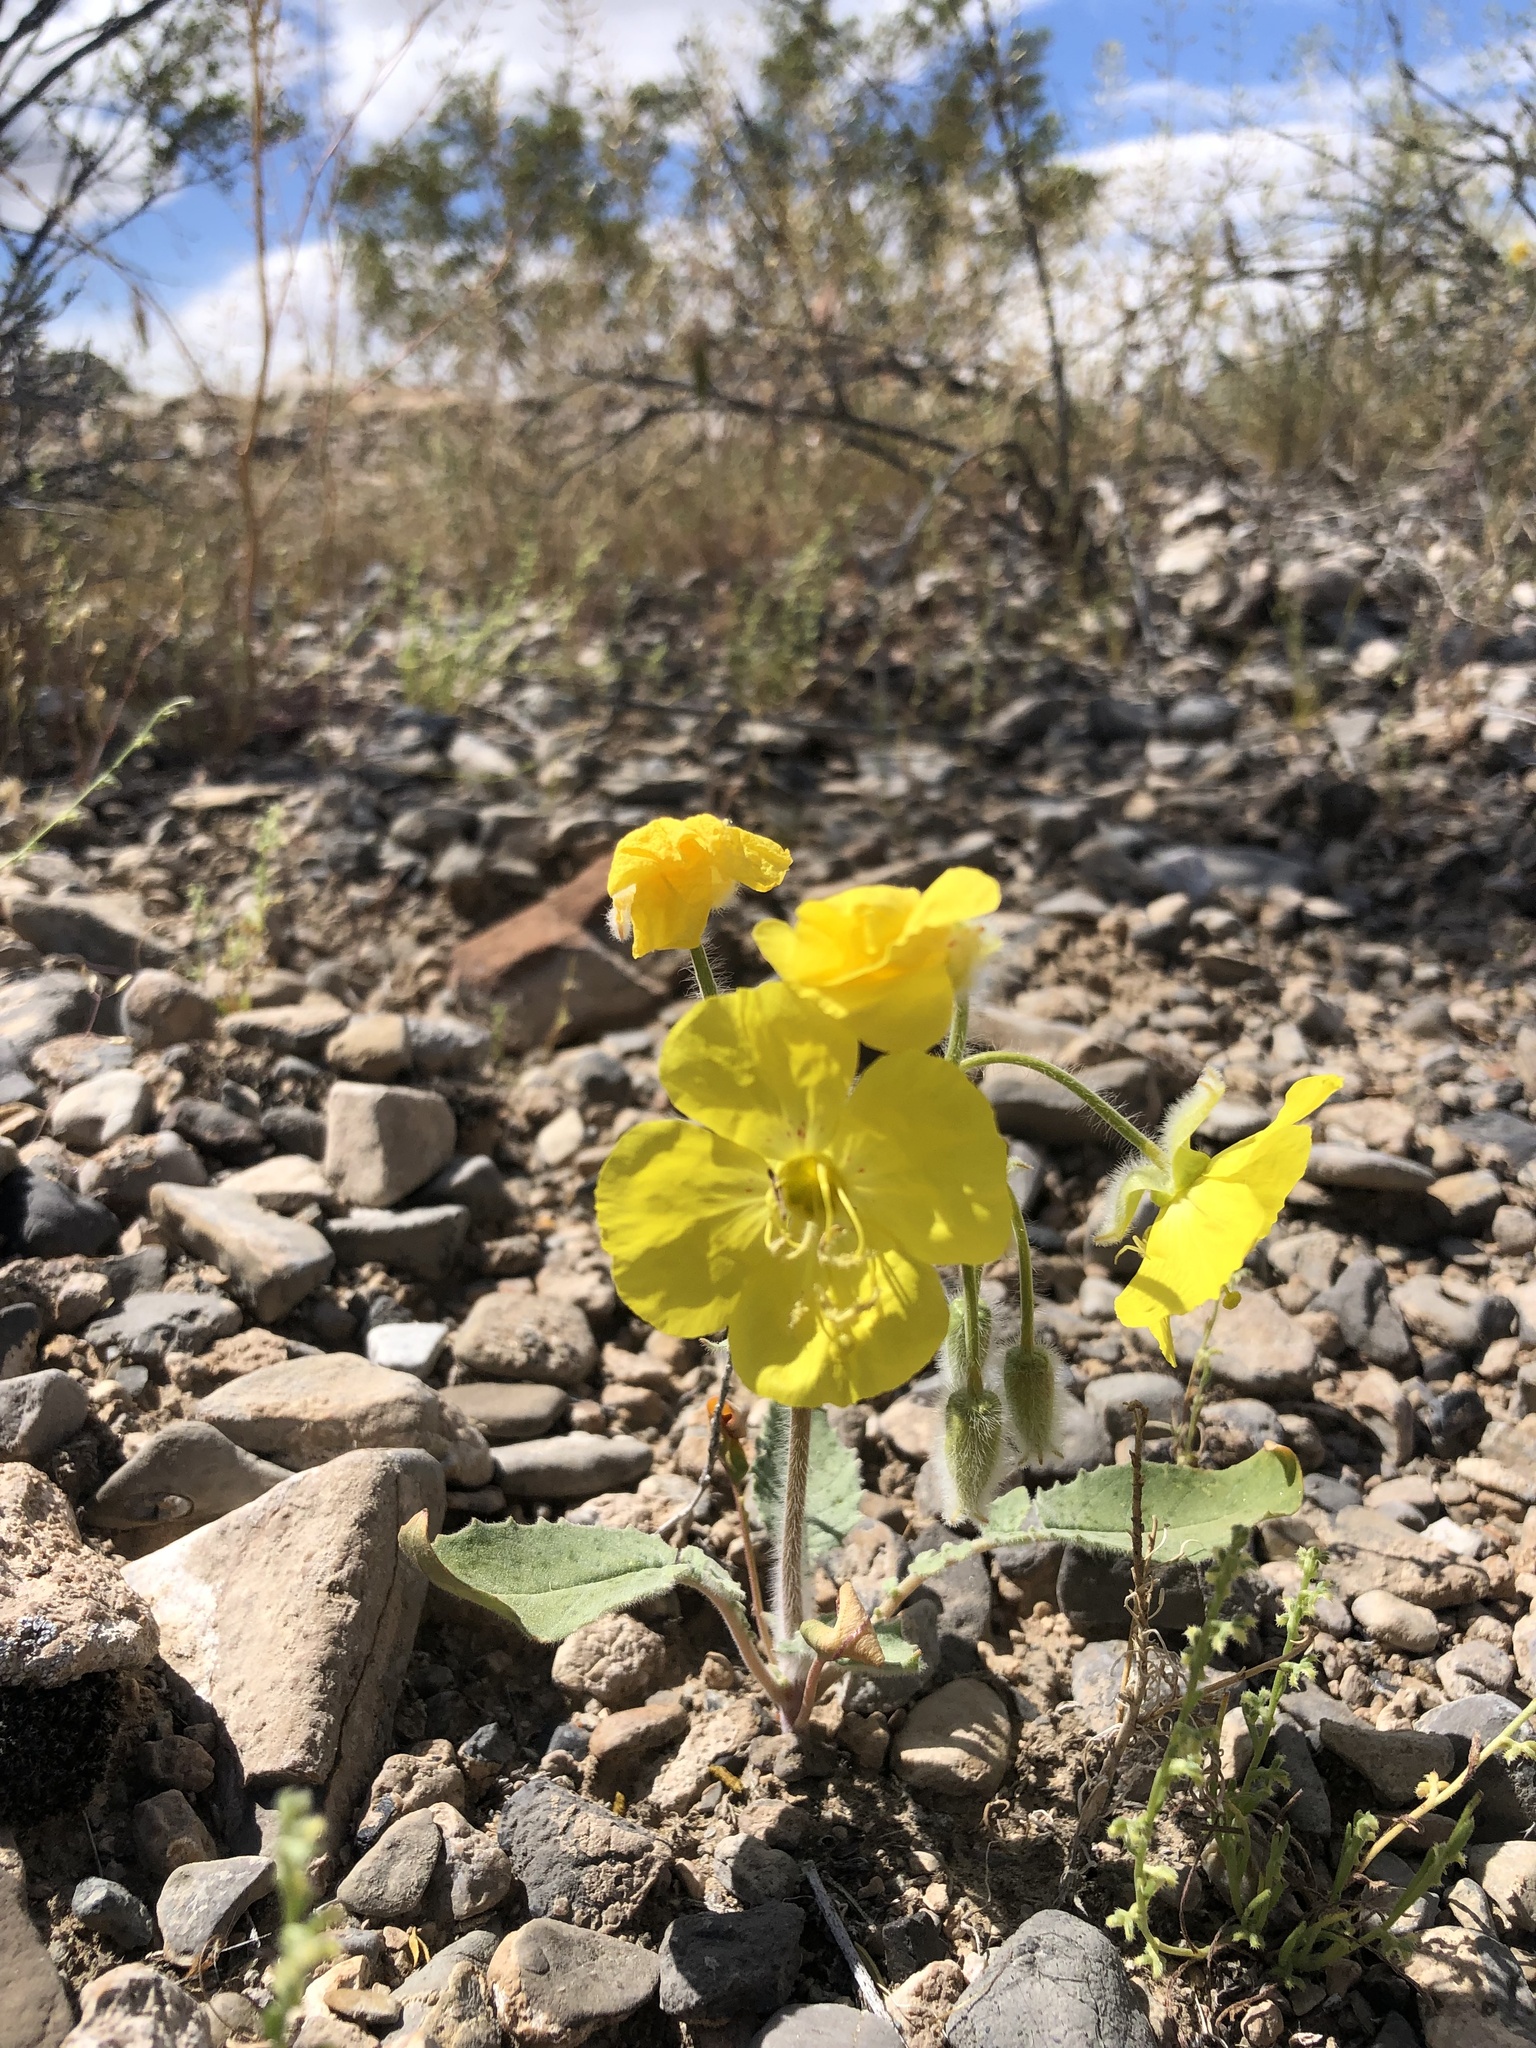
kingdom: Plantae
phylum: Tracheophyta
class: Magnoliopsida
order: Myrtales
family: Onagraceae
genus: Chylismia
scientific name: Chylismia brevipes
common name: Yellow cups
